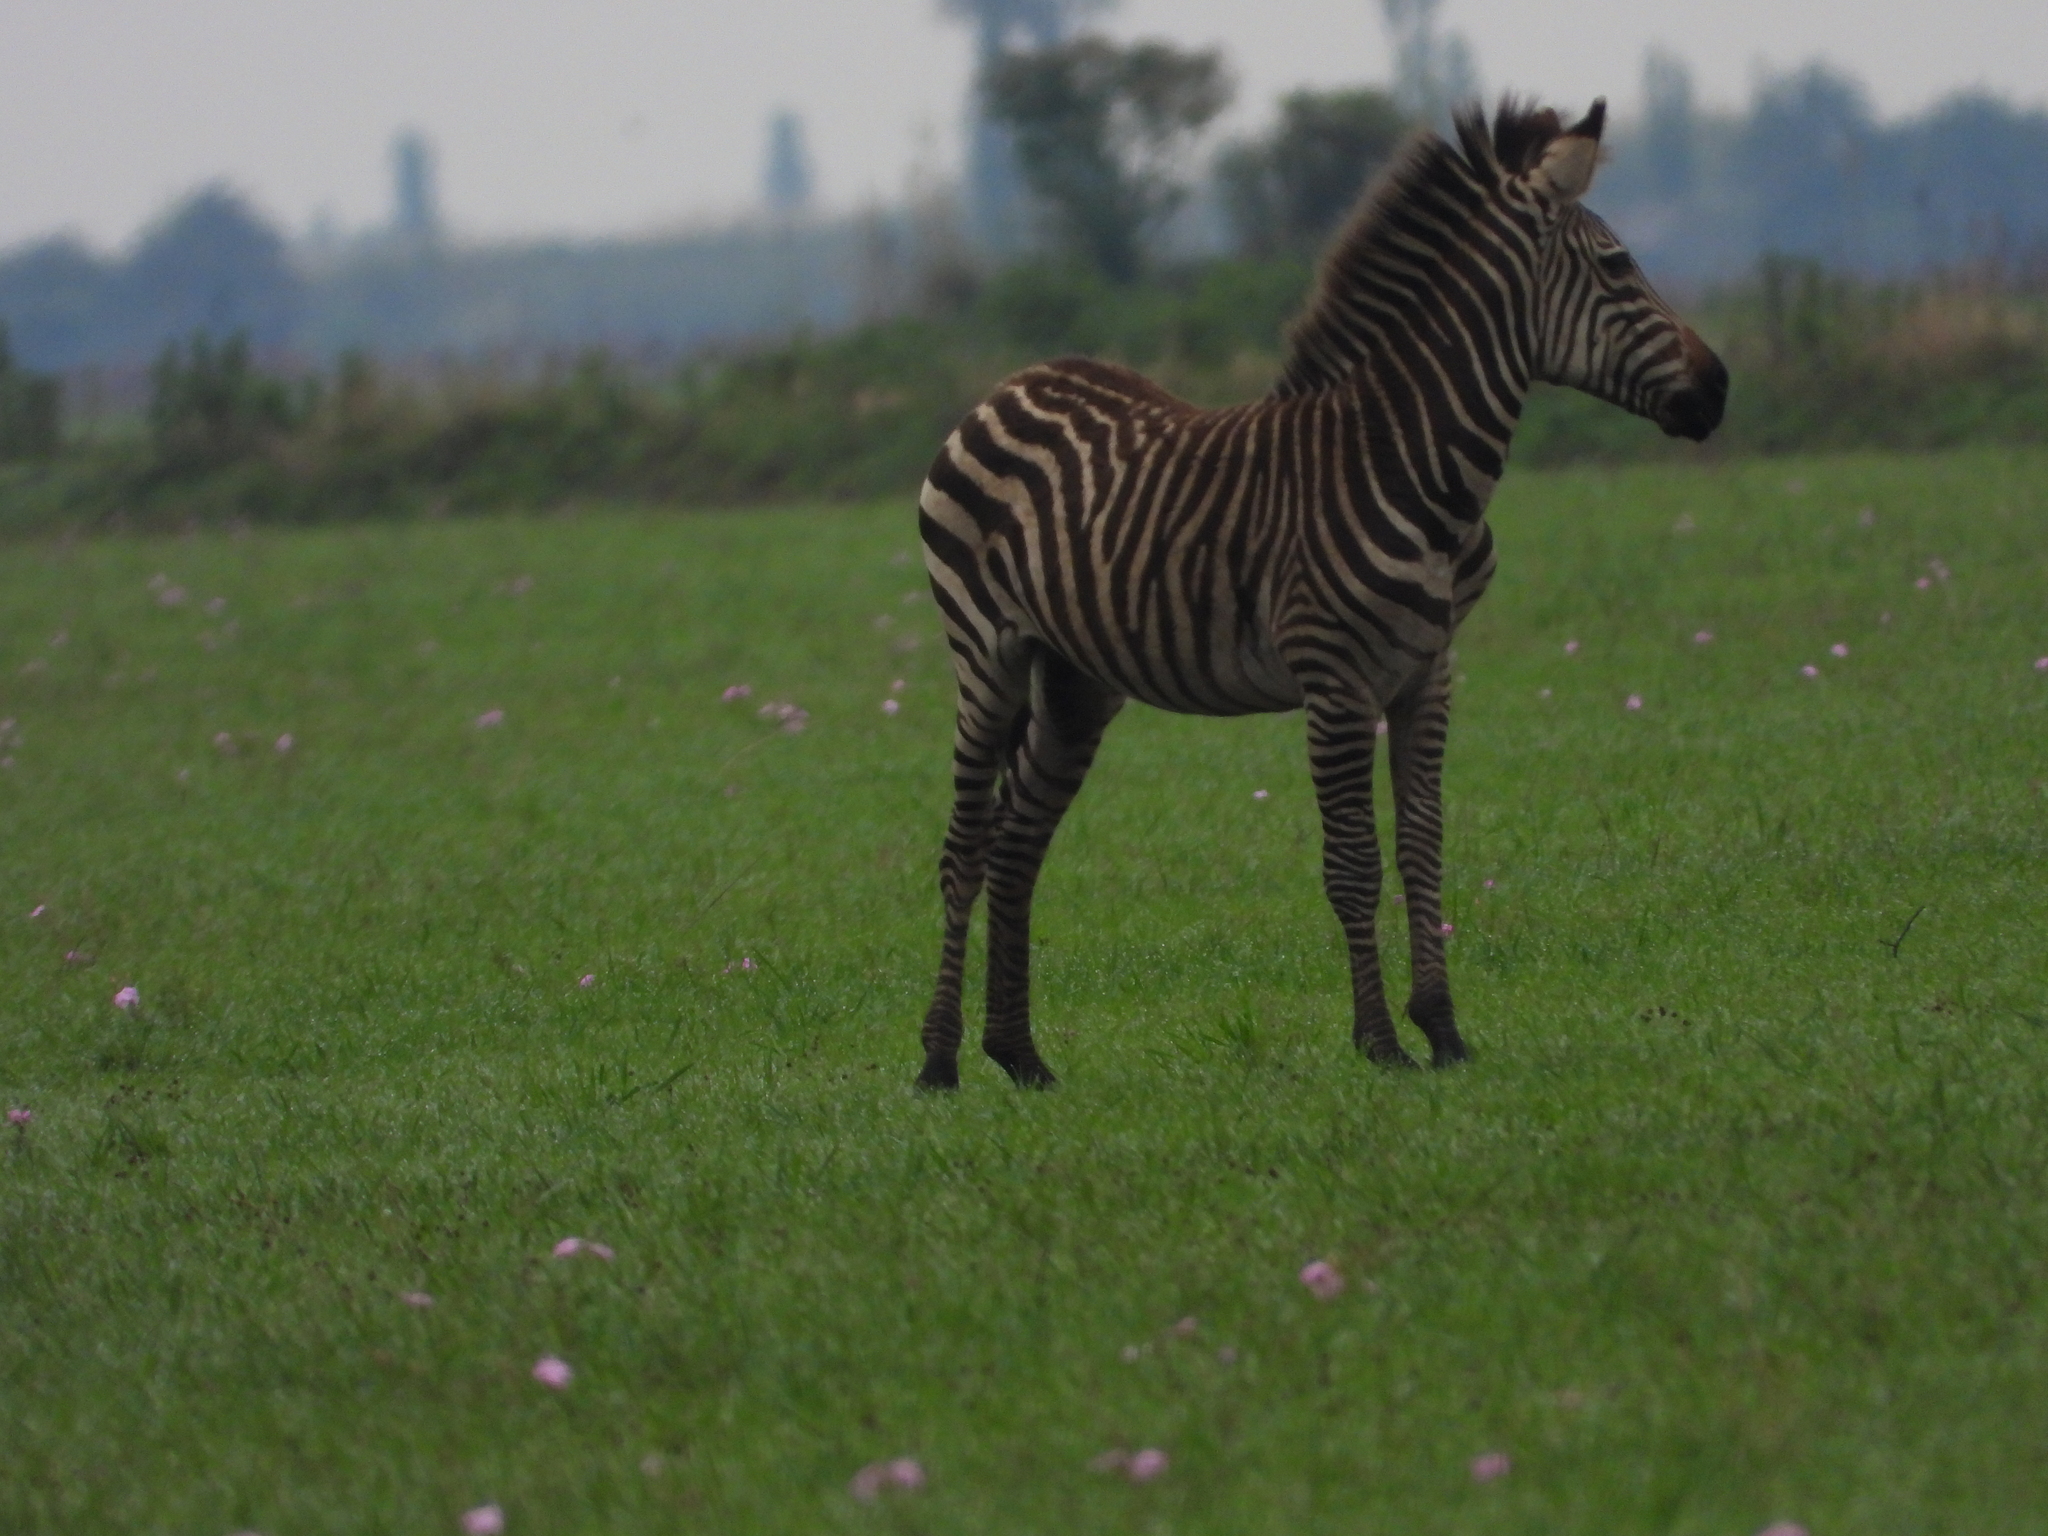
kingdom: Animalia
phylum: Chordata
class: Mammalia
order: Perissodactyla
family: Equidae
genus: Equus
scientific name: Equus quagga
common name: Plains zebra
